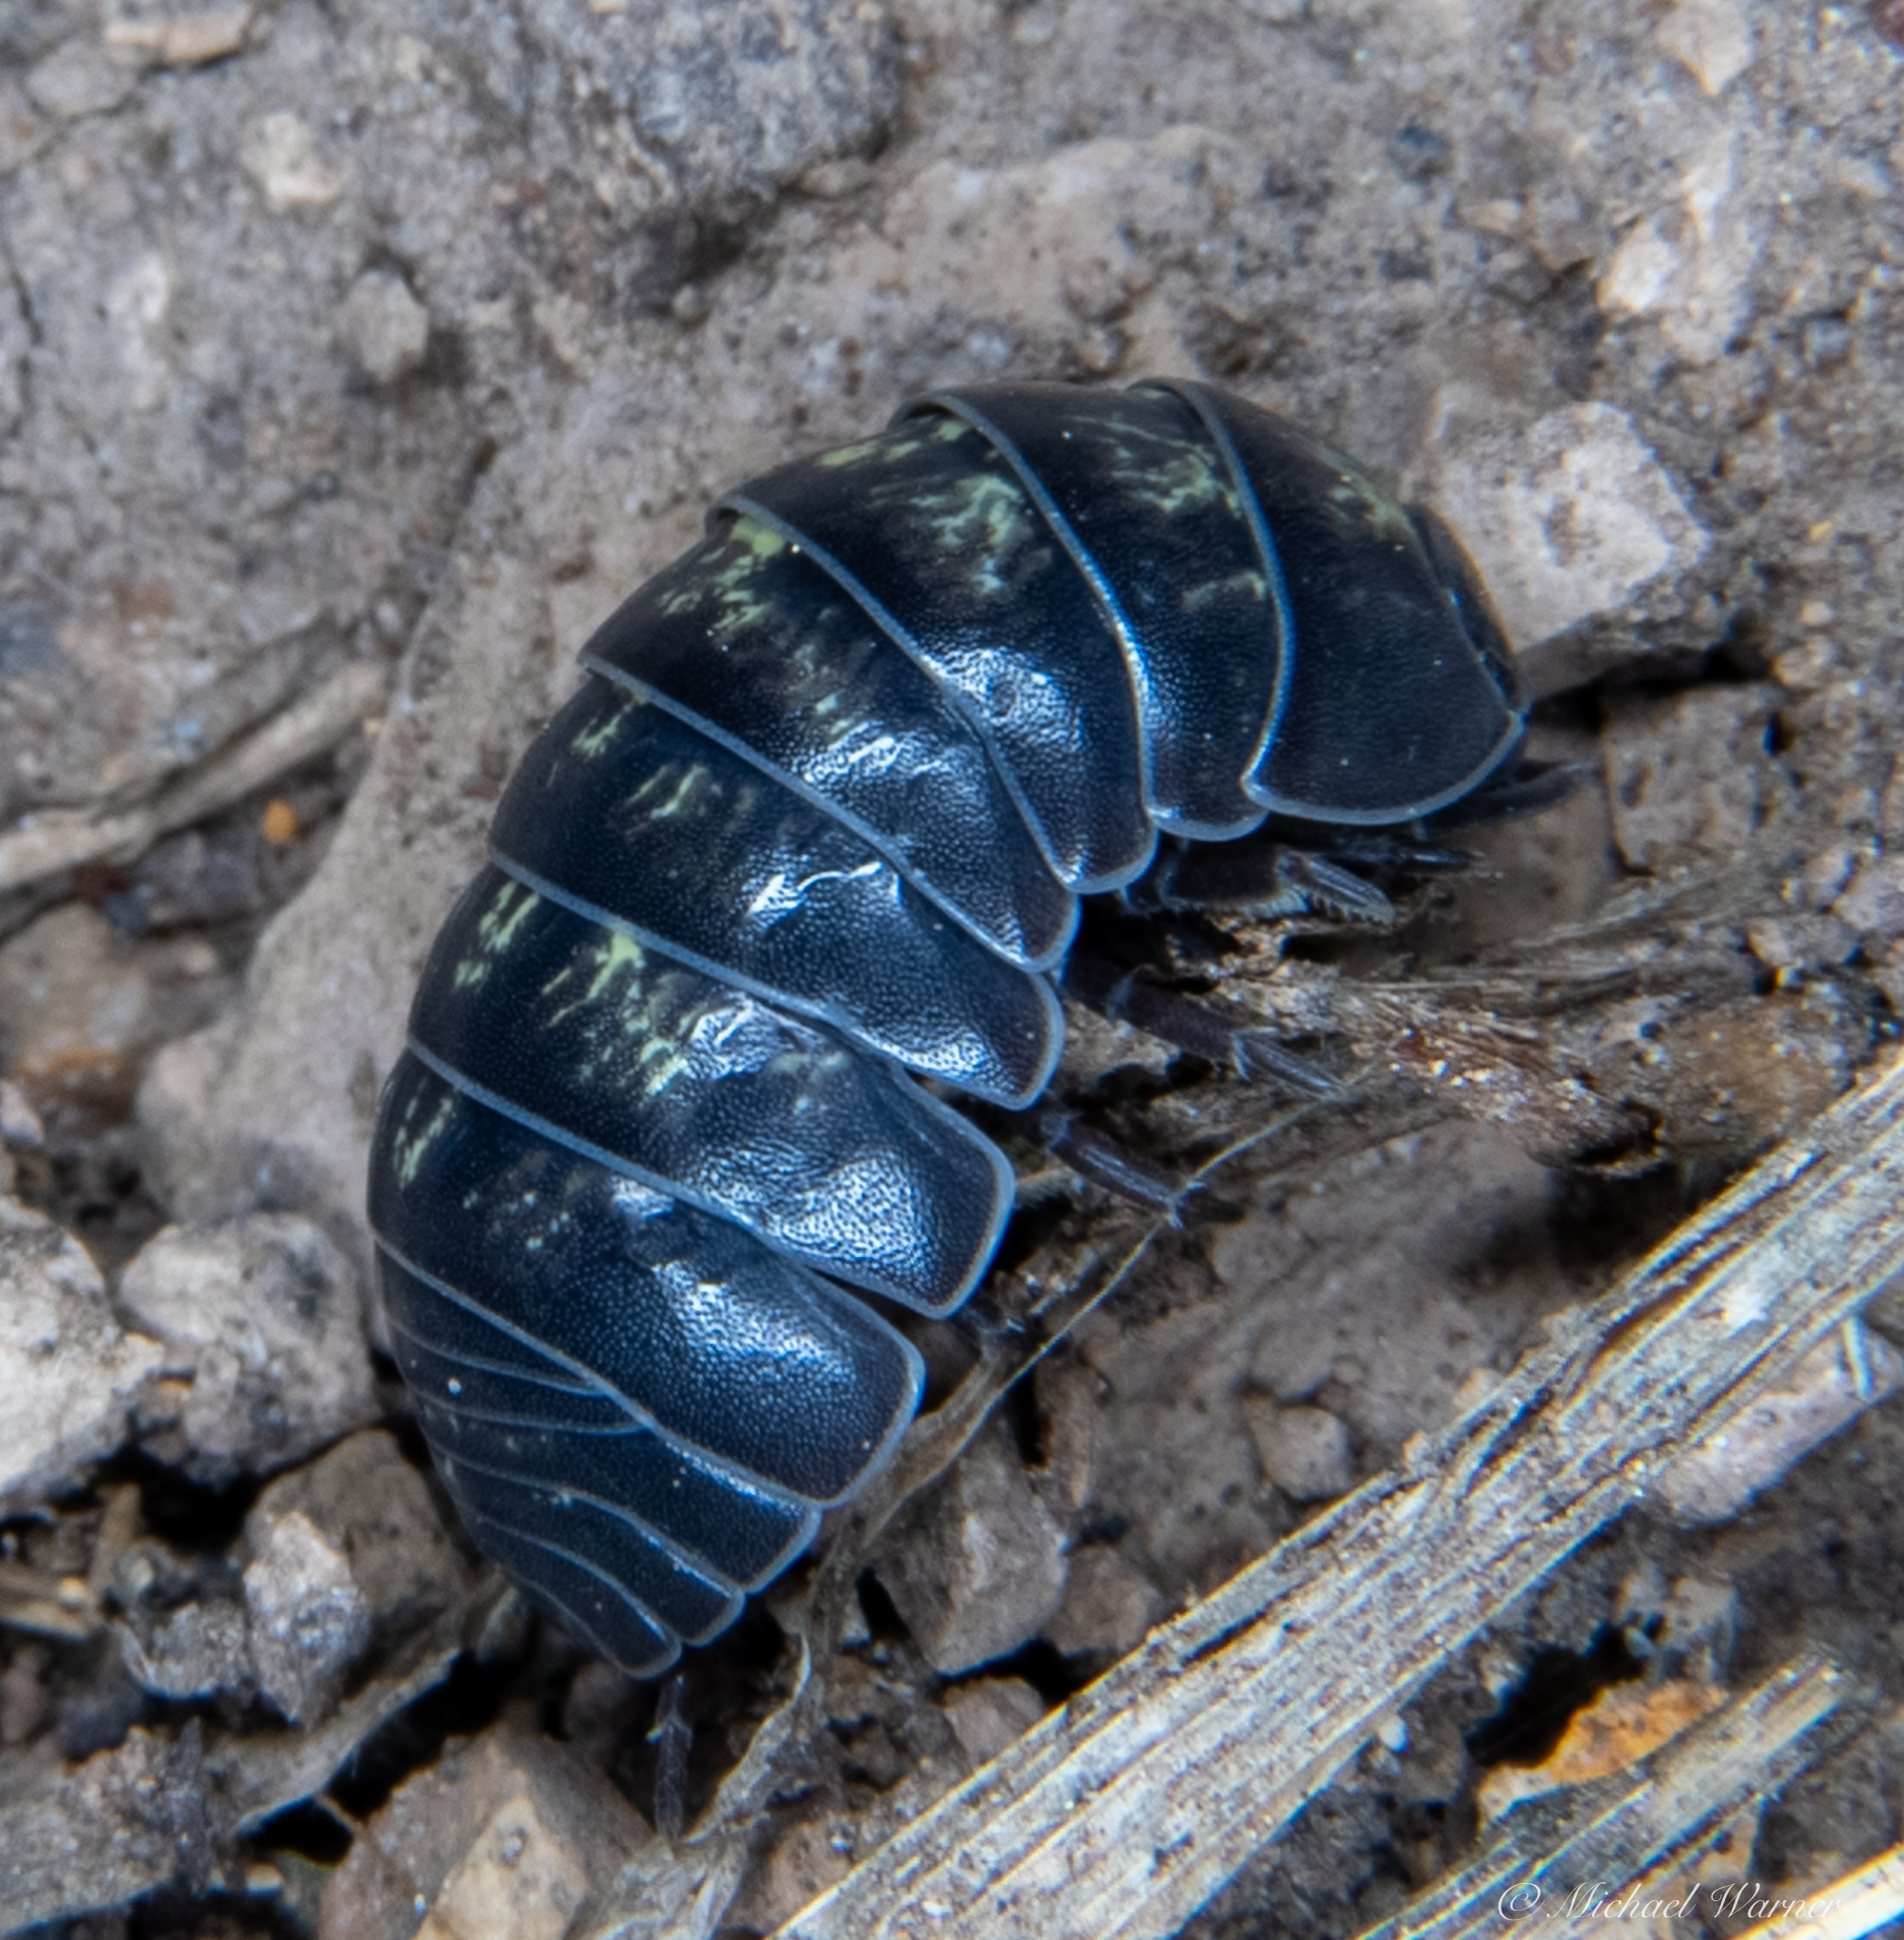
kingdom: Animalia
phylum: Arthropoda
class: Malacostraca
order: Isopoda
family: Armadillidiidae
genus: Armadillidium
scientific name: Armadillidium vulgare
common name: Common pill woodlouse
